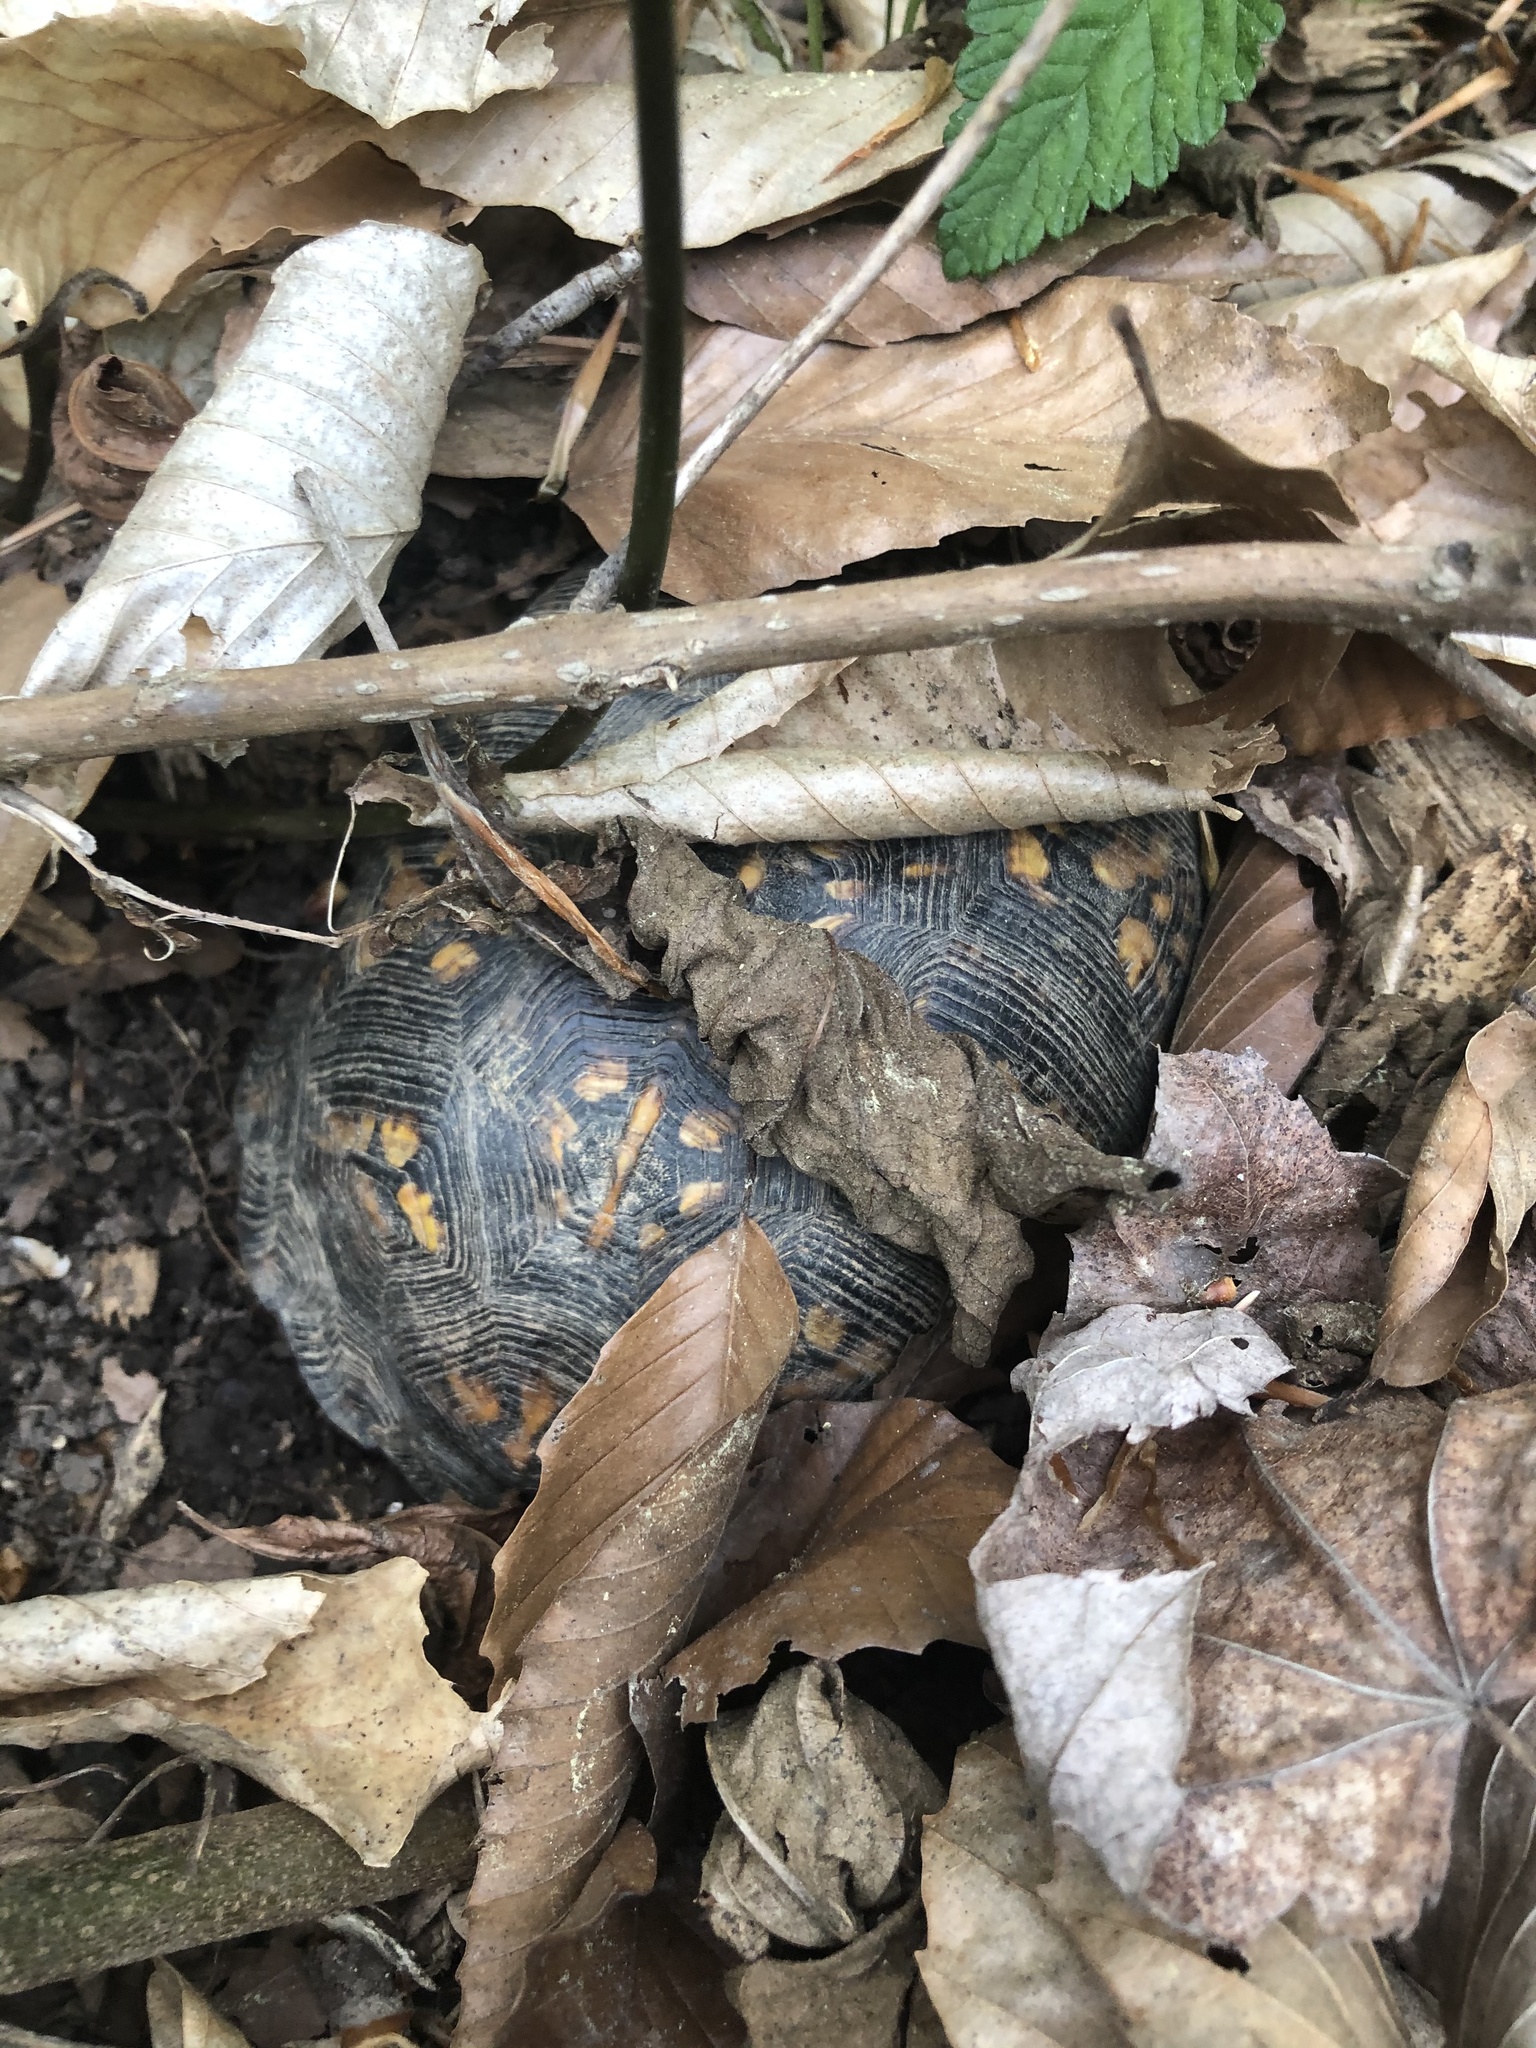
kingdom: Animalia
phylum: Chordata
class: Testudines
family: Emydidae
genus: Terrapene
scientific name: Terrapene carolina
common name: Common box turtle
